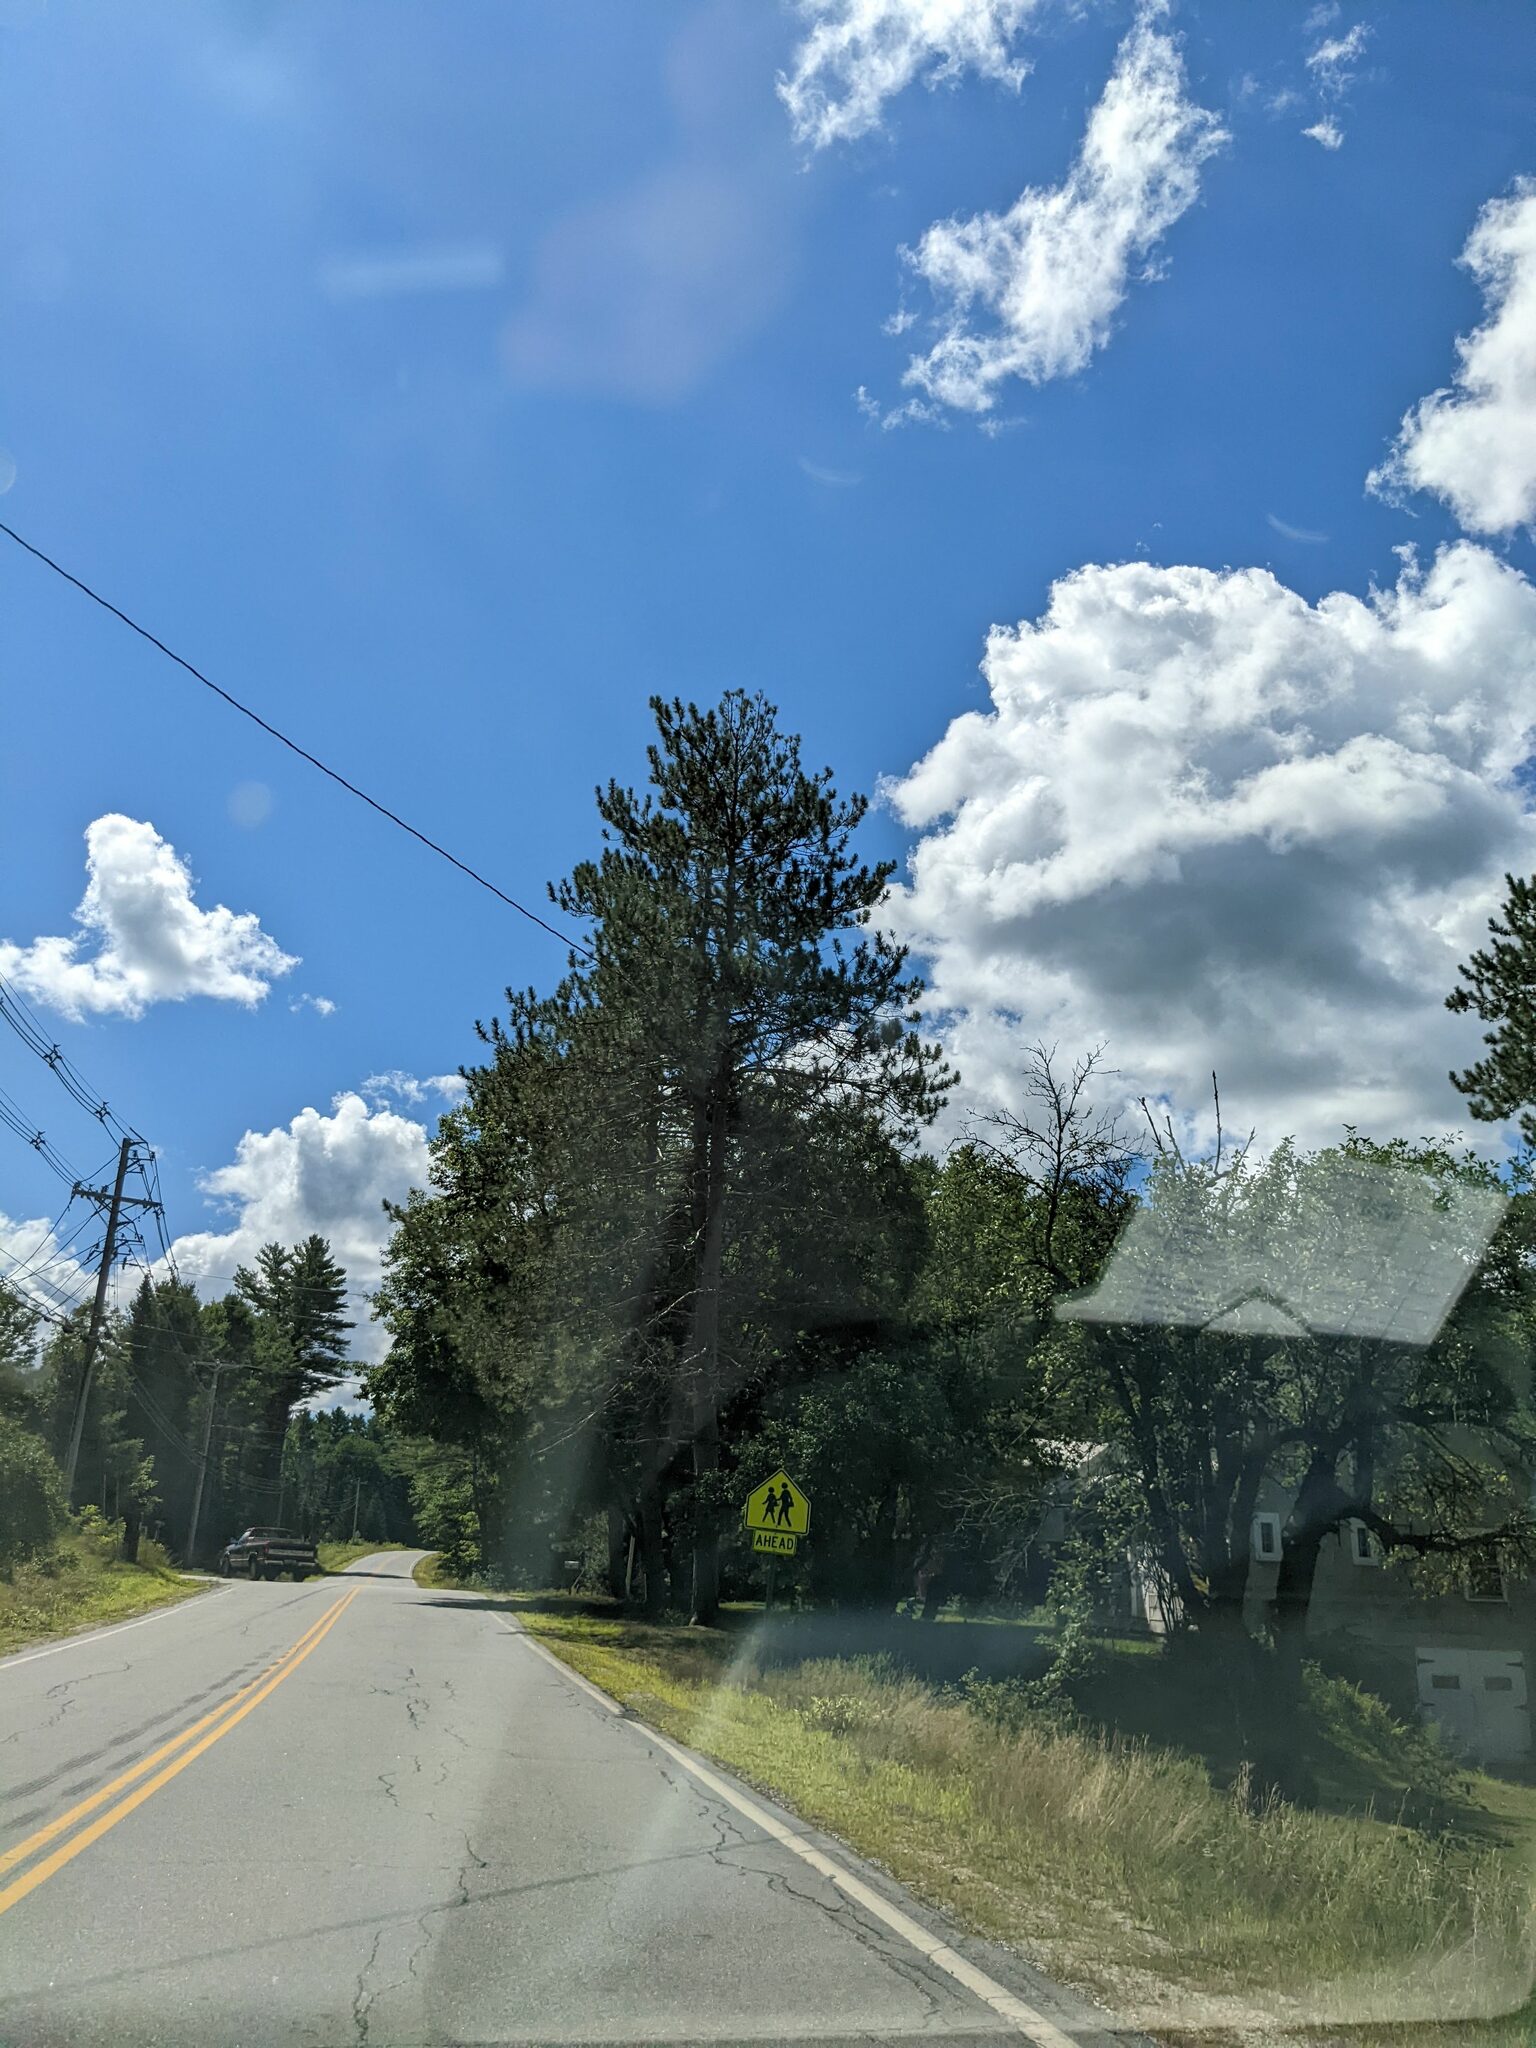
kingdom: Plantae
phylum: Tracheophyta
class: Pinopsida
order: Pinales
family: Pinaceae
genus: Pinus
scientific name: Pinus resinosa
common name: Norway pine
